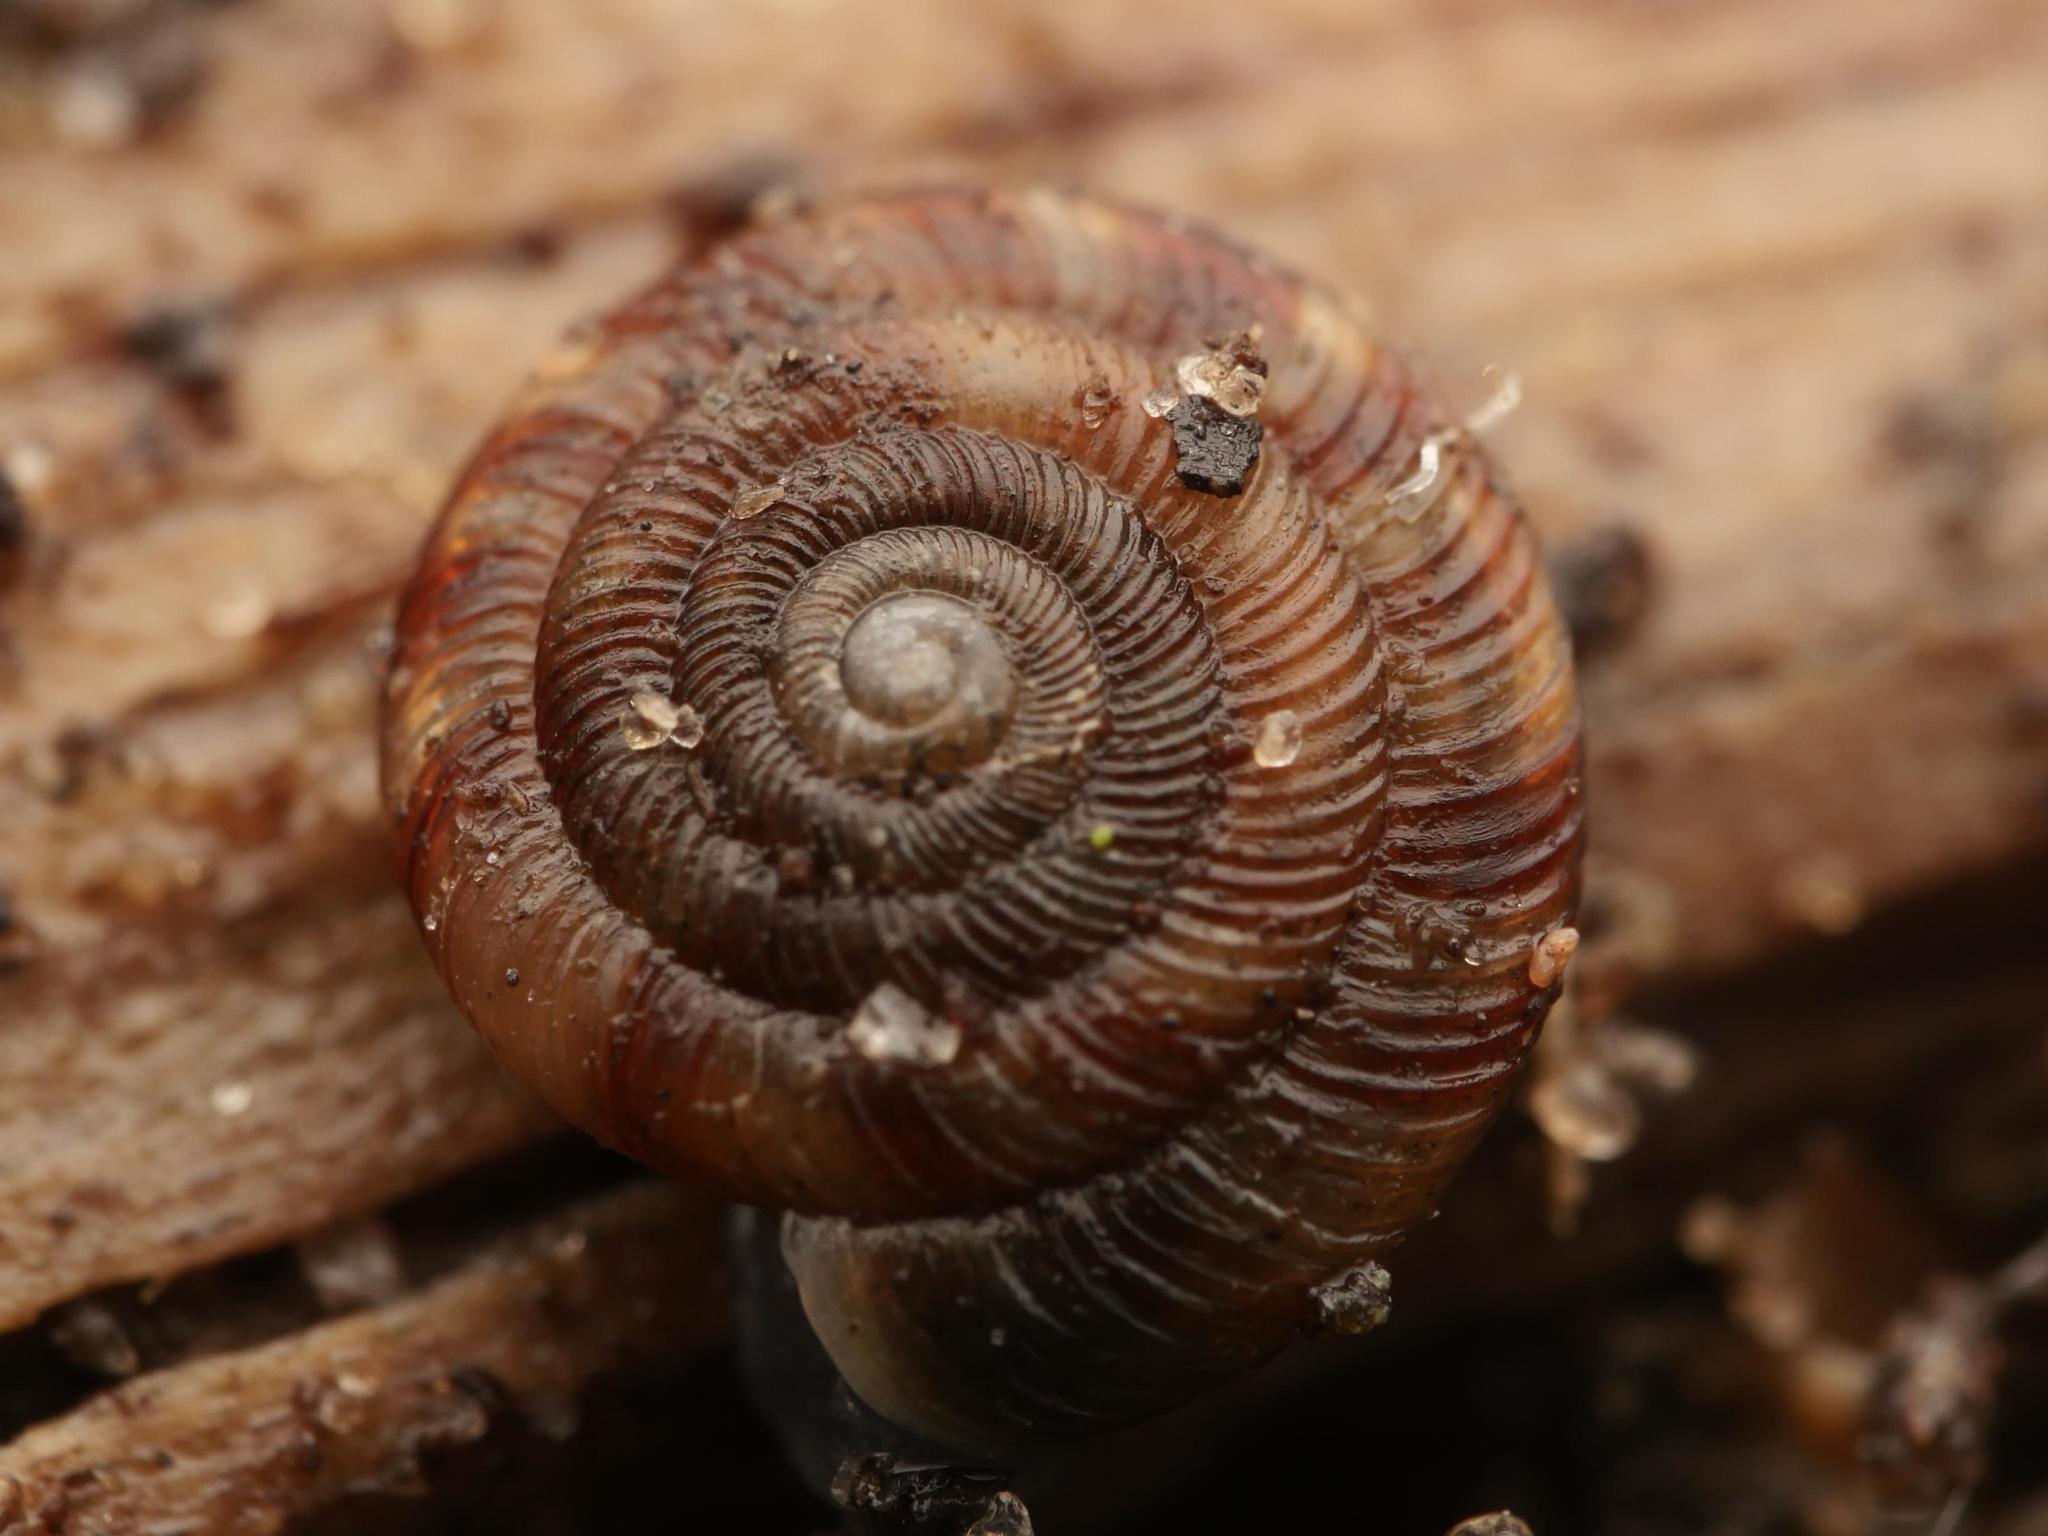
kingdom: Animalia
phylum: Mollusca
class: Gastropoda
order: Stylommatophora
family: Discidae
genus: Discus
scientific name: Discus rotundatus
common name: Rounded snail
